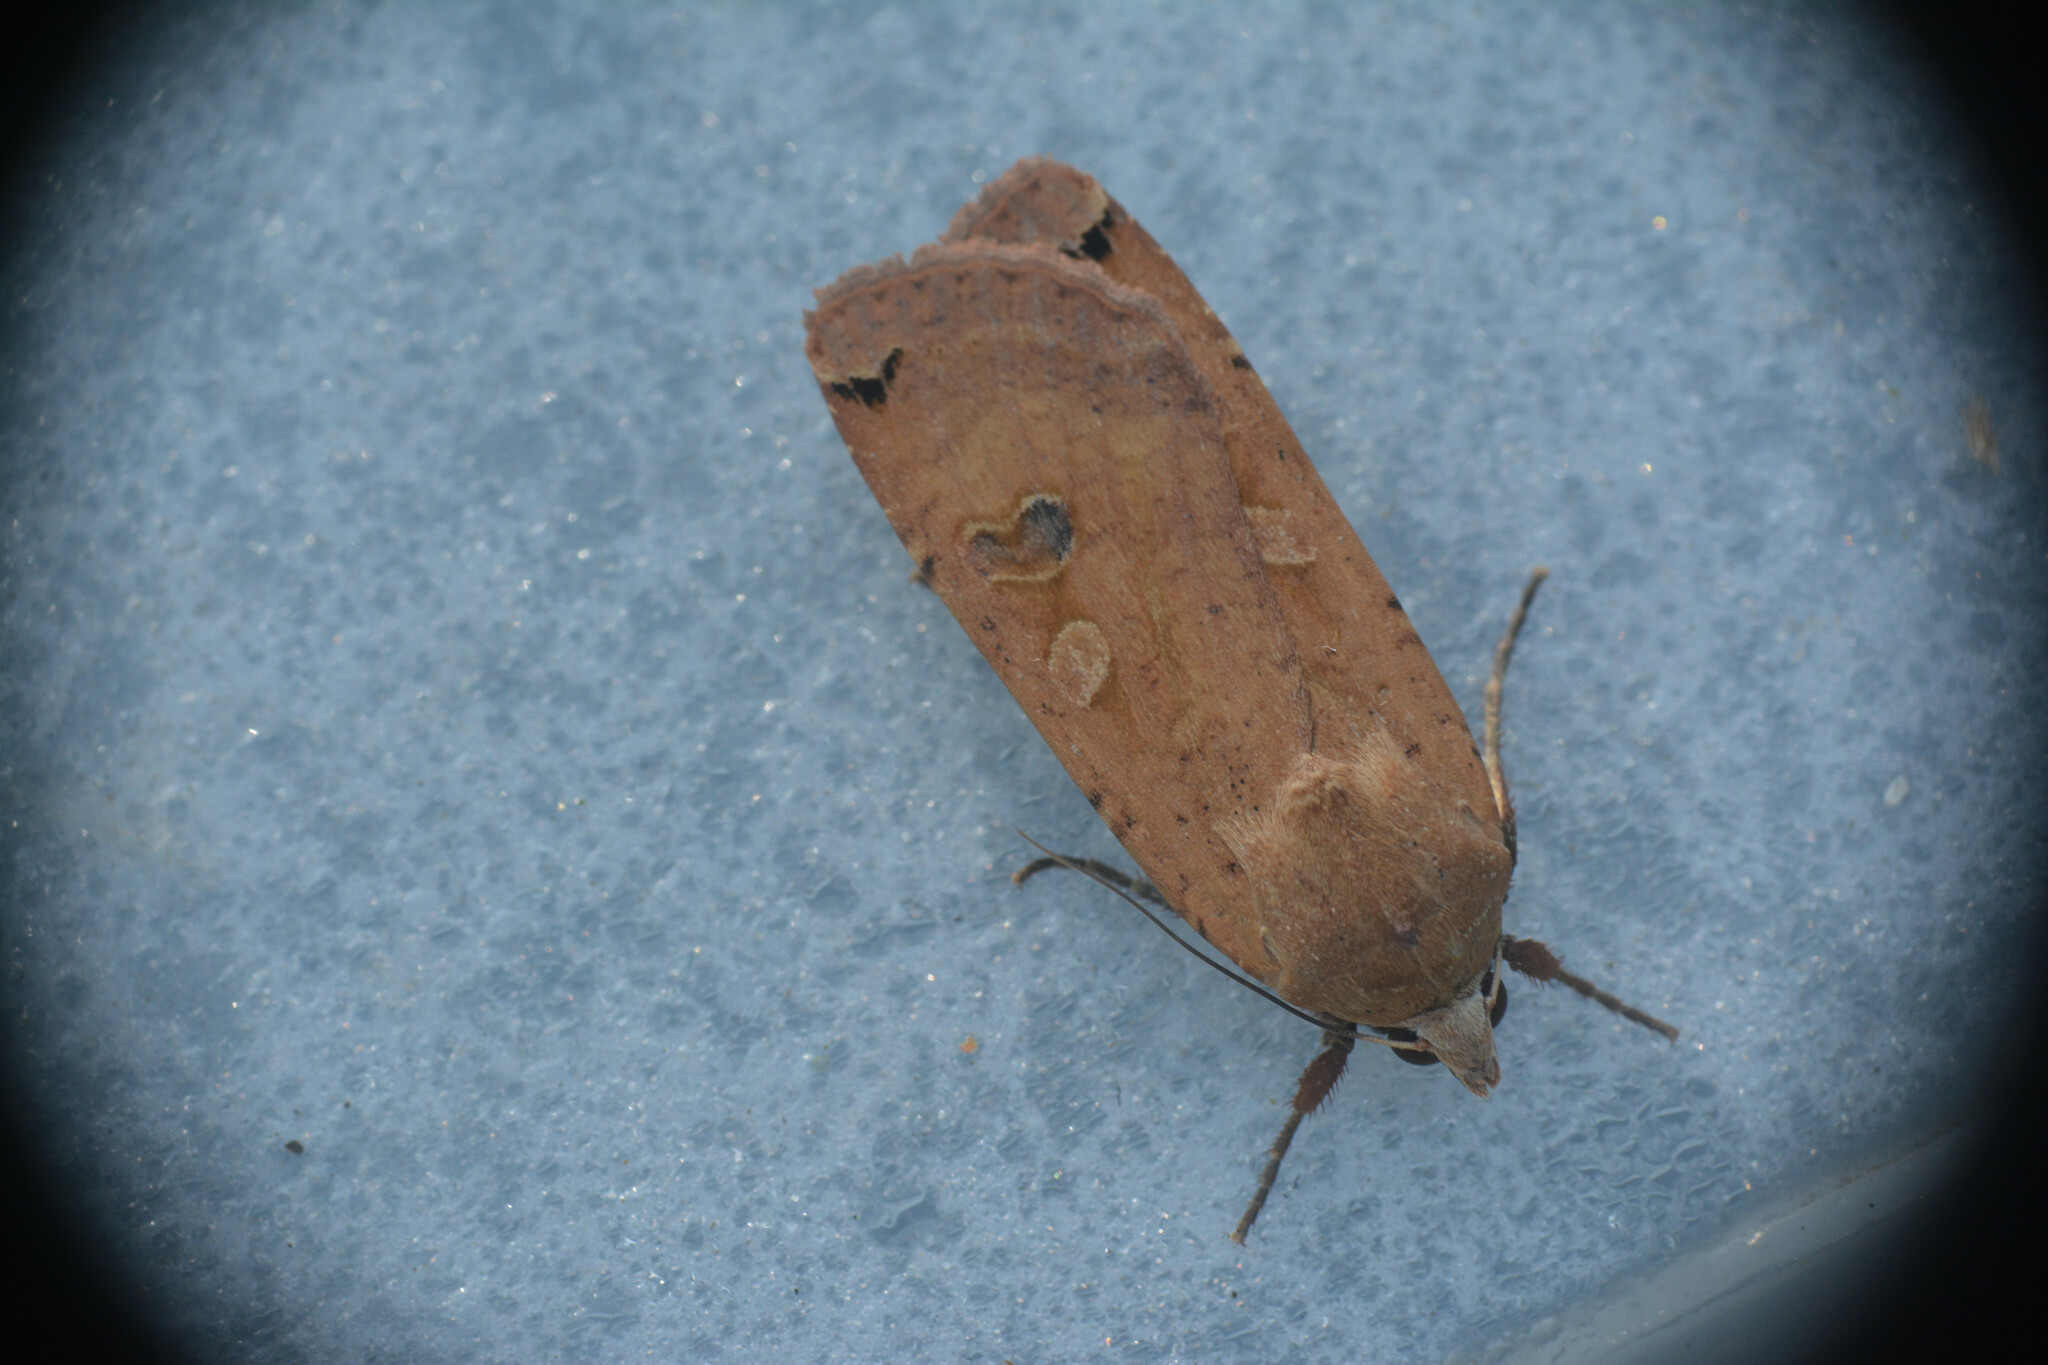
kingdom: Animalia
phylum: Arthropoda
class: Insecta
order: Lepidoptera
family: Noctuidae
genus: Noctua
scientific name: Noctua pronuba
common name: Large yellow underwing
